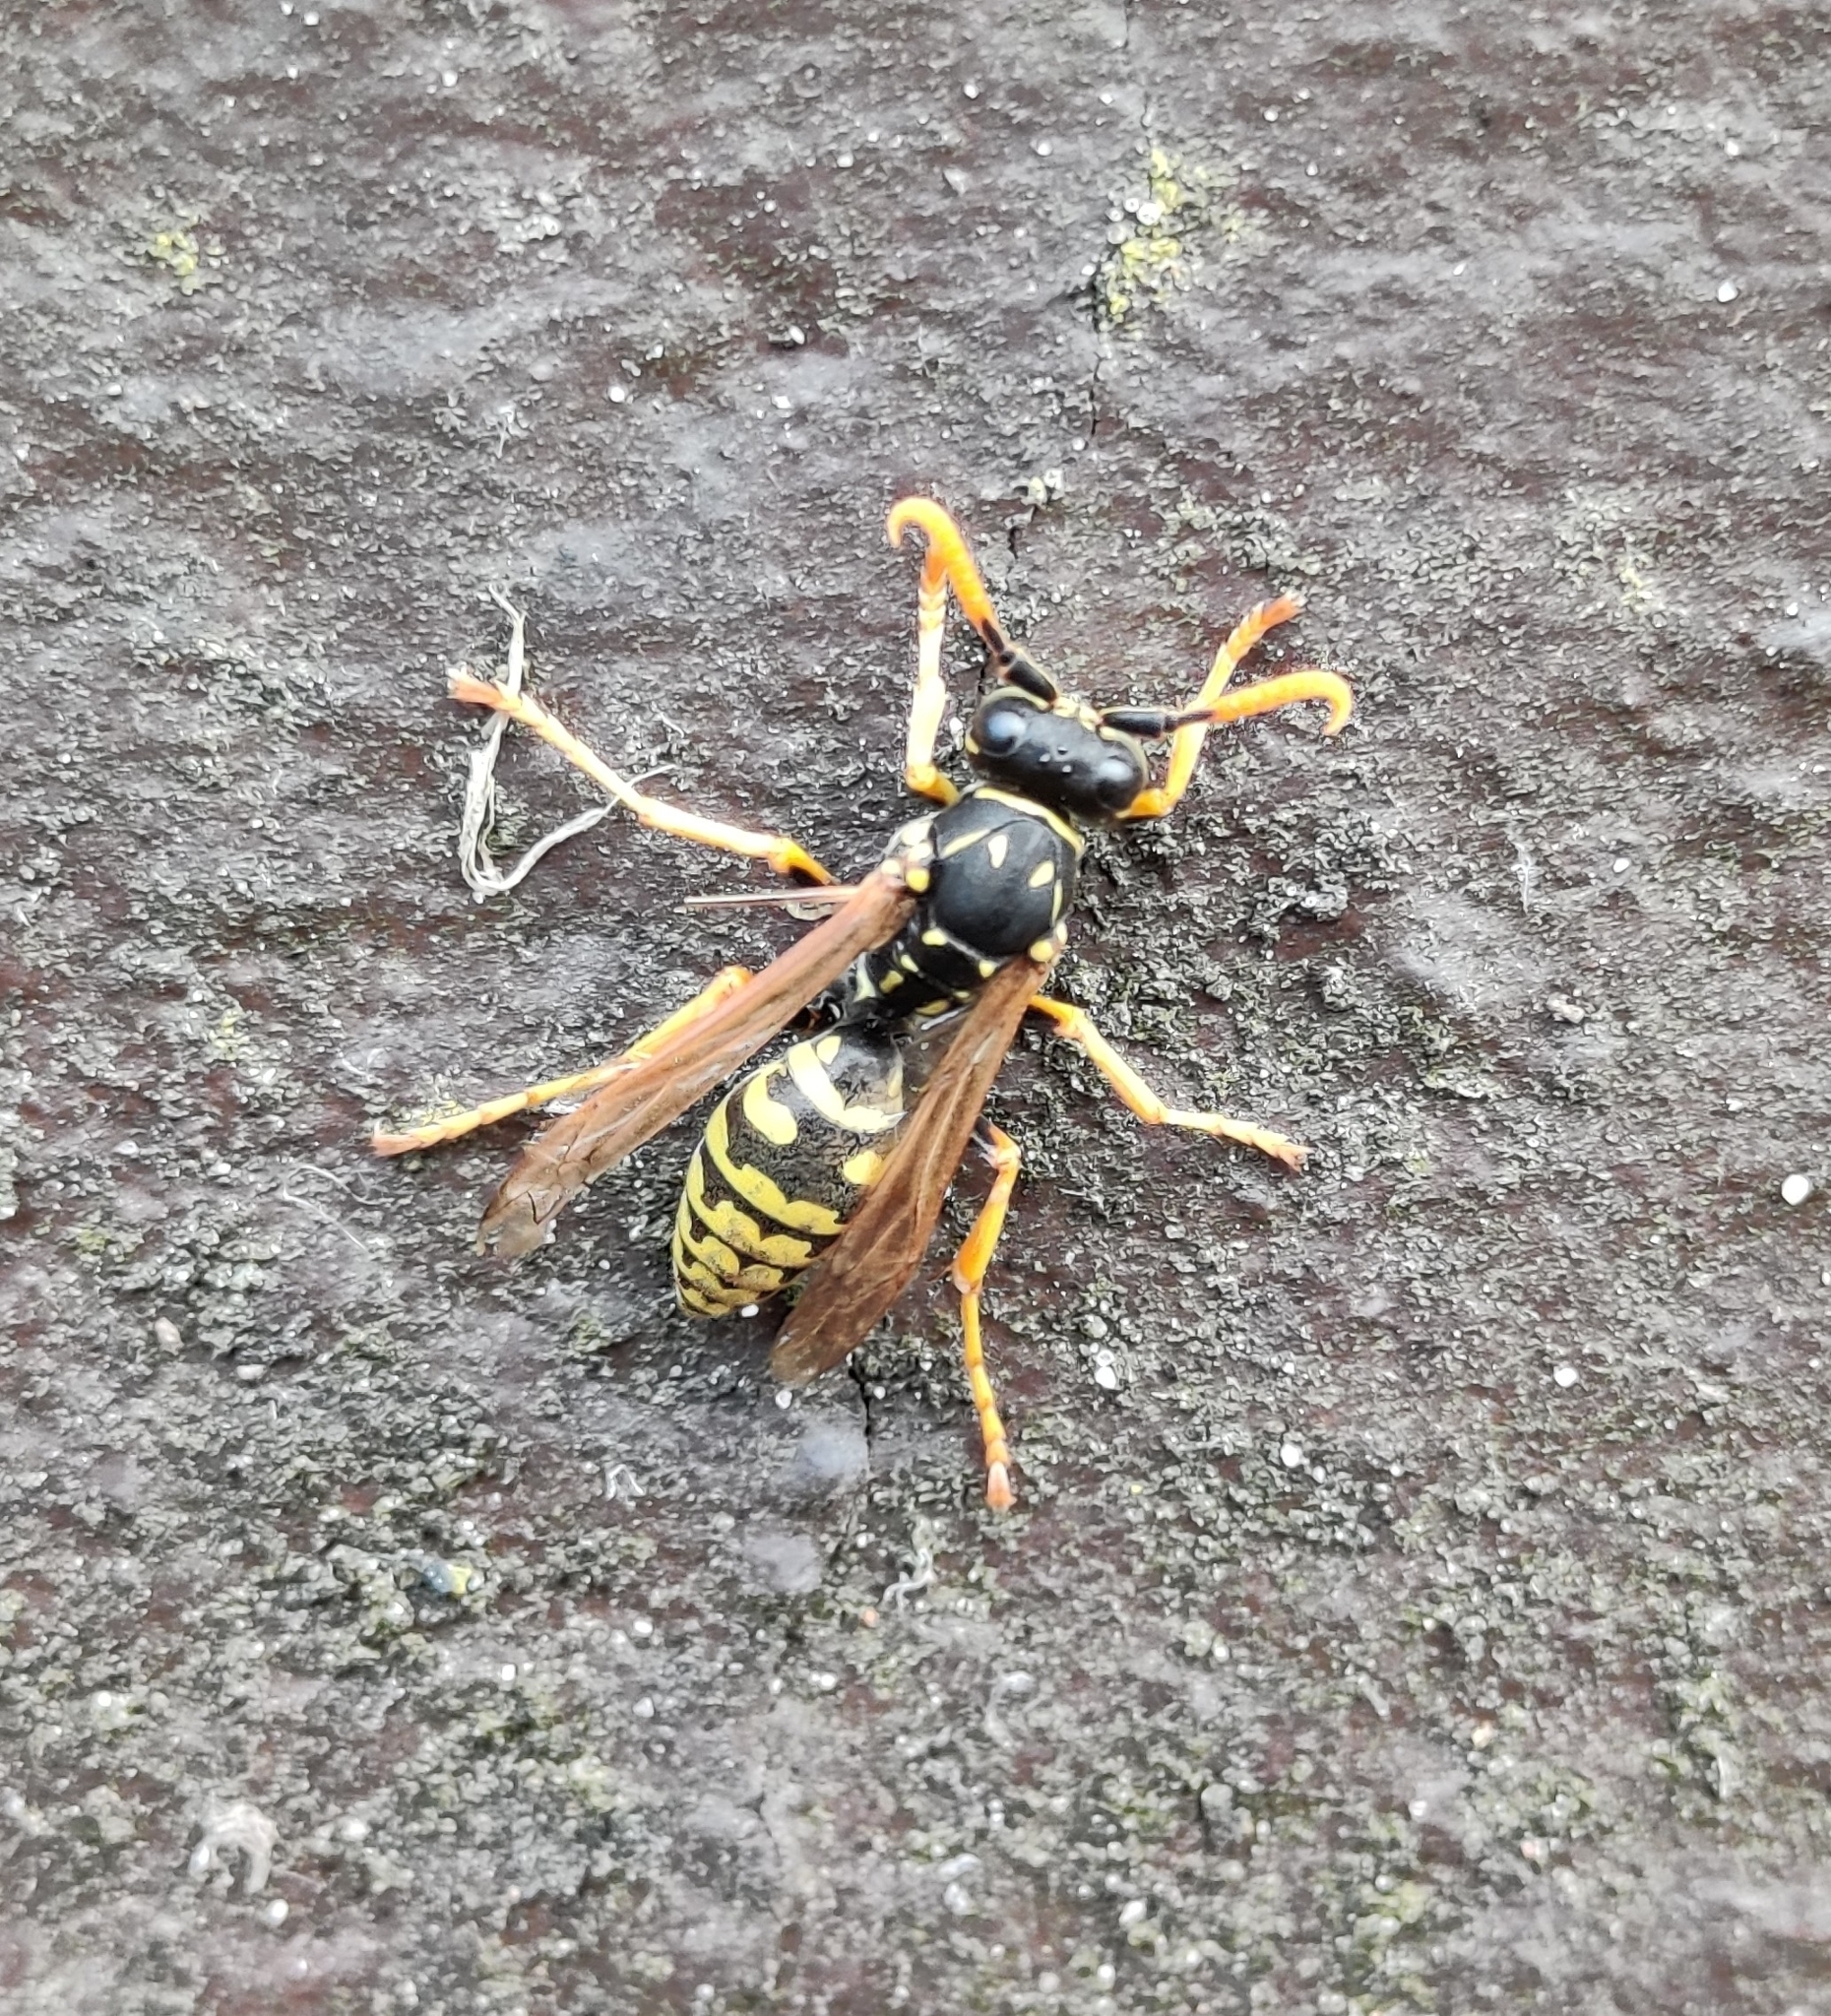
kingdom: Animalia
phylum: Arthropoda
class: Insecta
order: Hymenoptera
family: Eumenidae
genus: Polistes
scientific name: Polistes dominula
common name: Paper wasp
